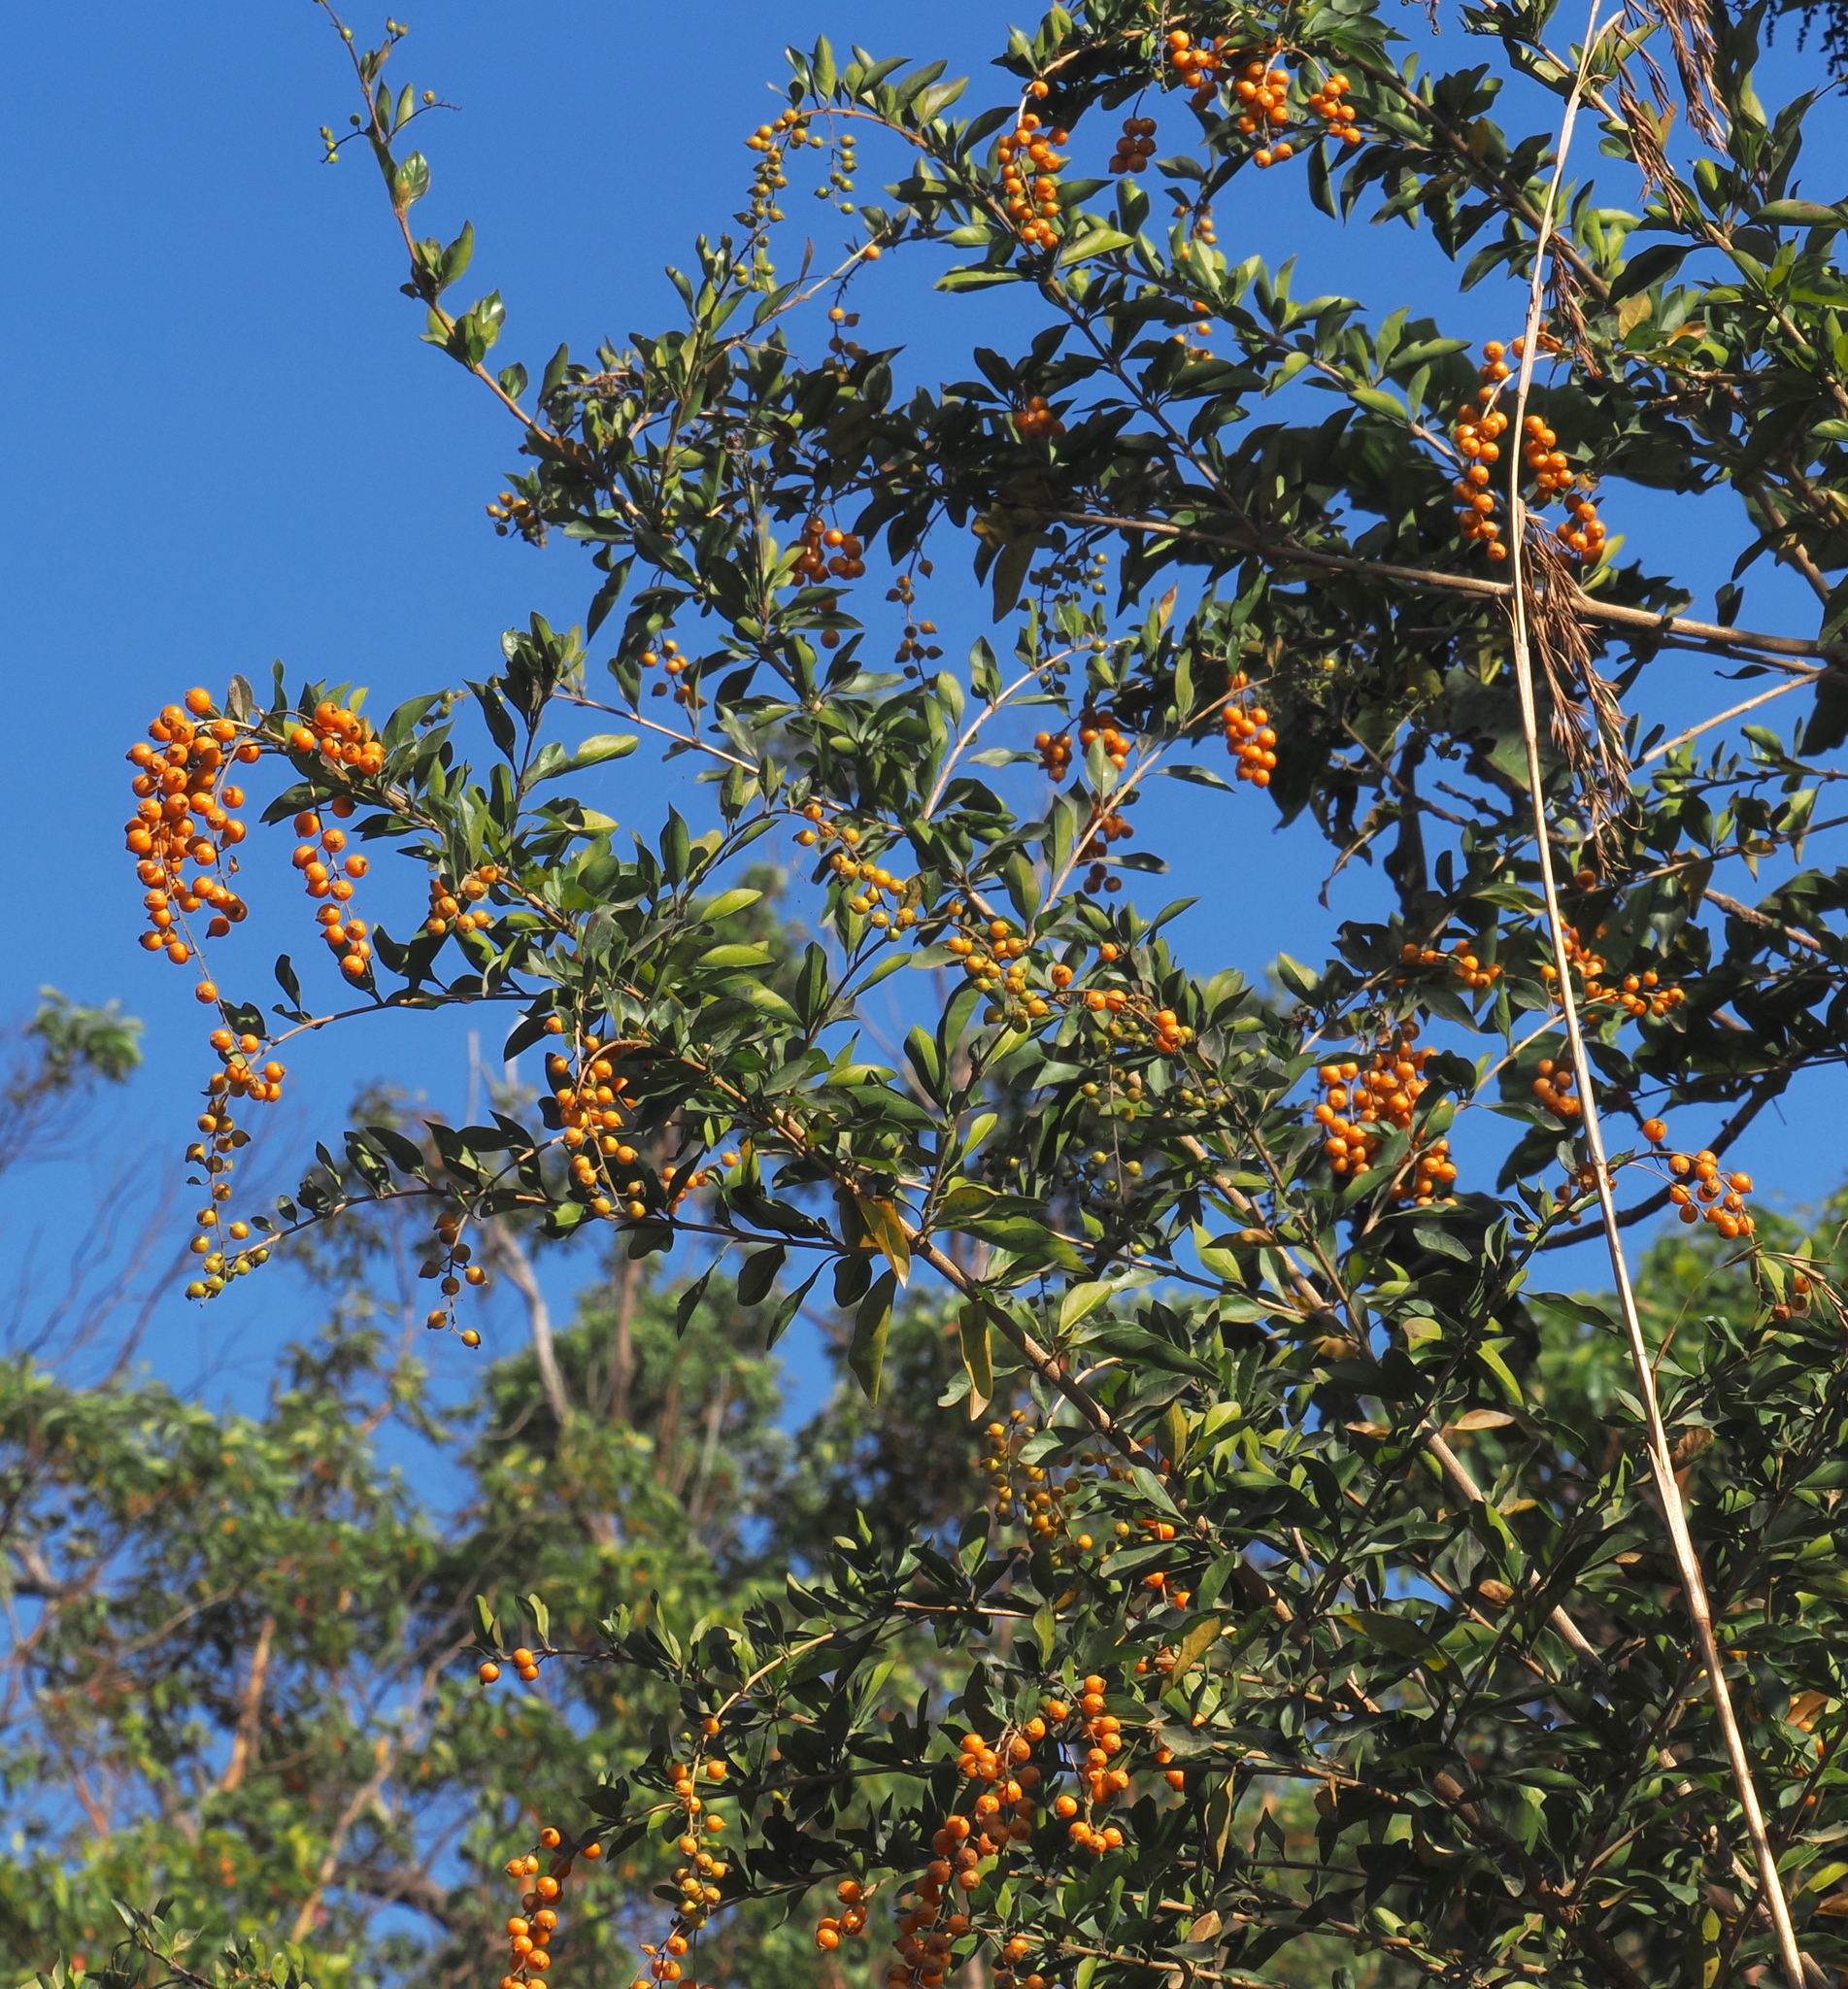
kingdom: Plantae
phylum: Tracheophyta
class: Magnoliopsida
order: Lamiales
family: Verbenaceae
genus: Duranta
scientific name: Duranta erecta
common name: Golden dewdrops
